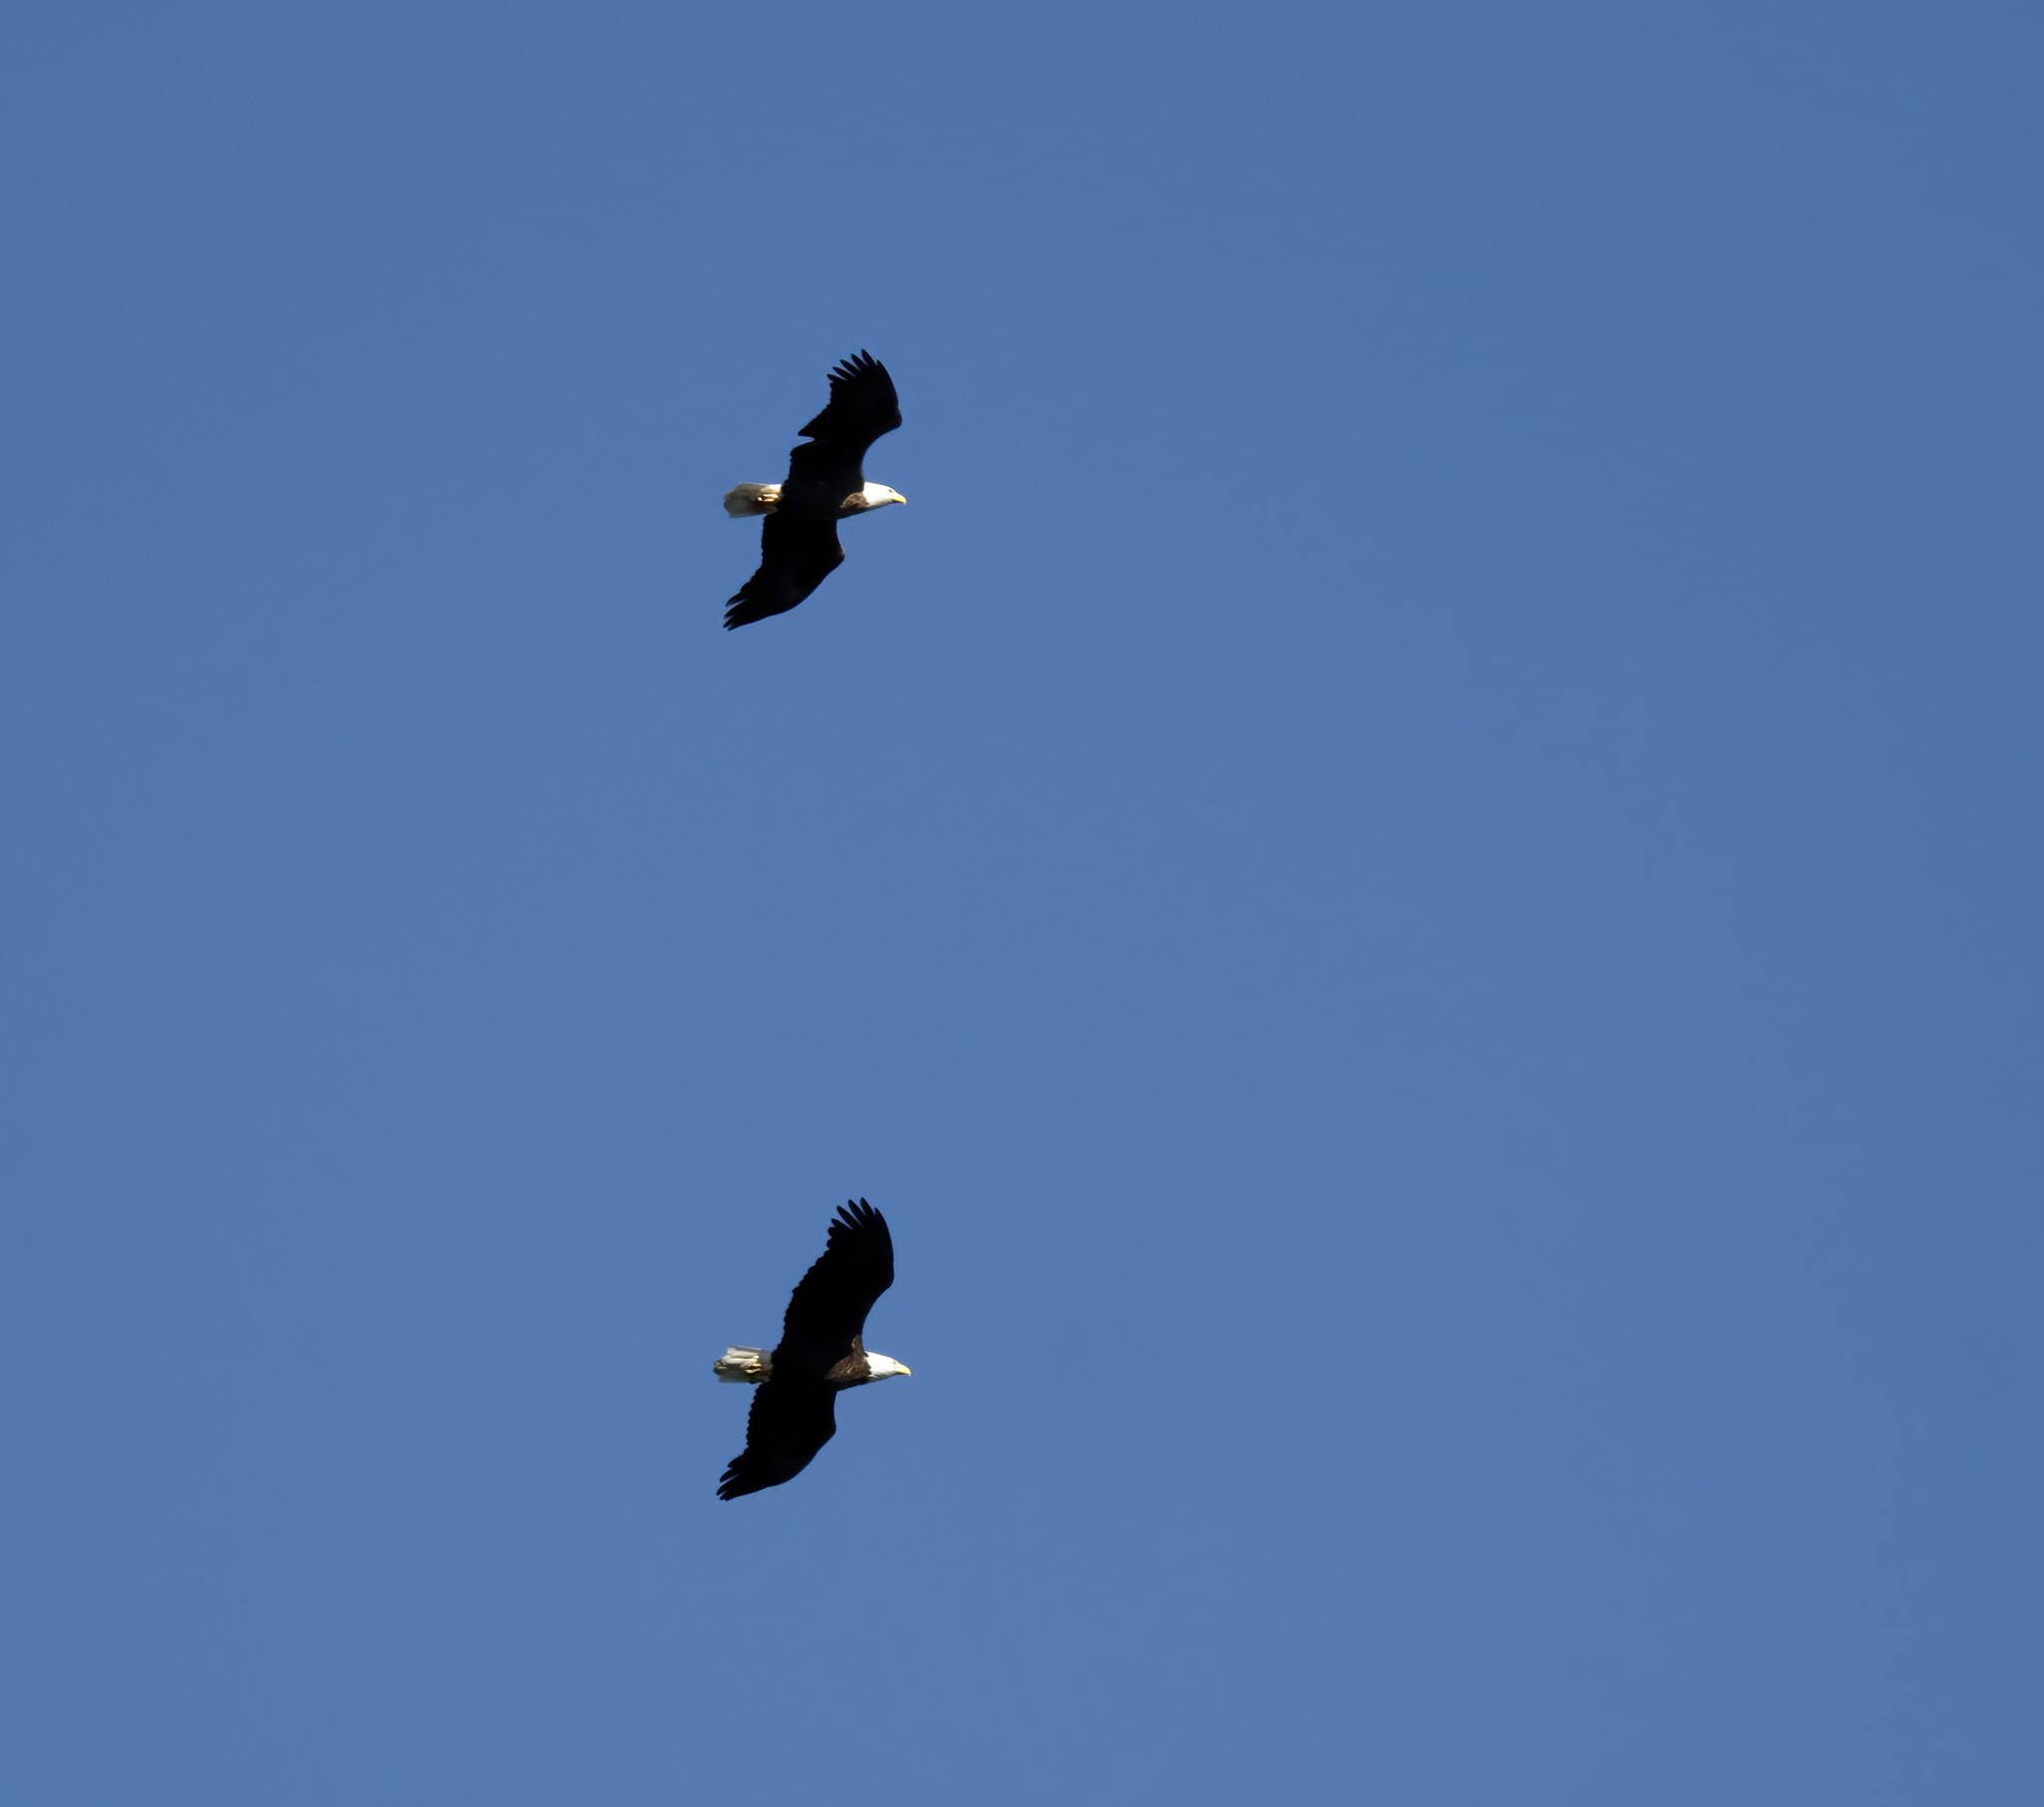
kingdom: Animalia
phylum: Chordata
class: Aves
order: Accipitriformes
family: Accipitridae
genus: Haliaeetus
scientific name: Haliaeetus leucocephalus
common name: Bald eagle
